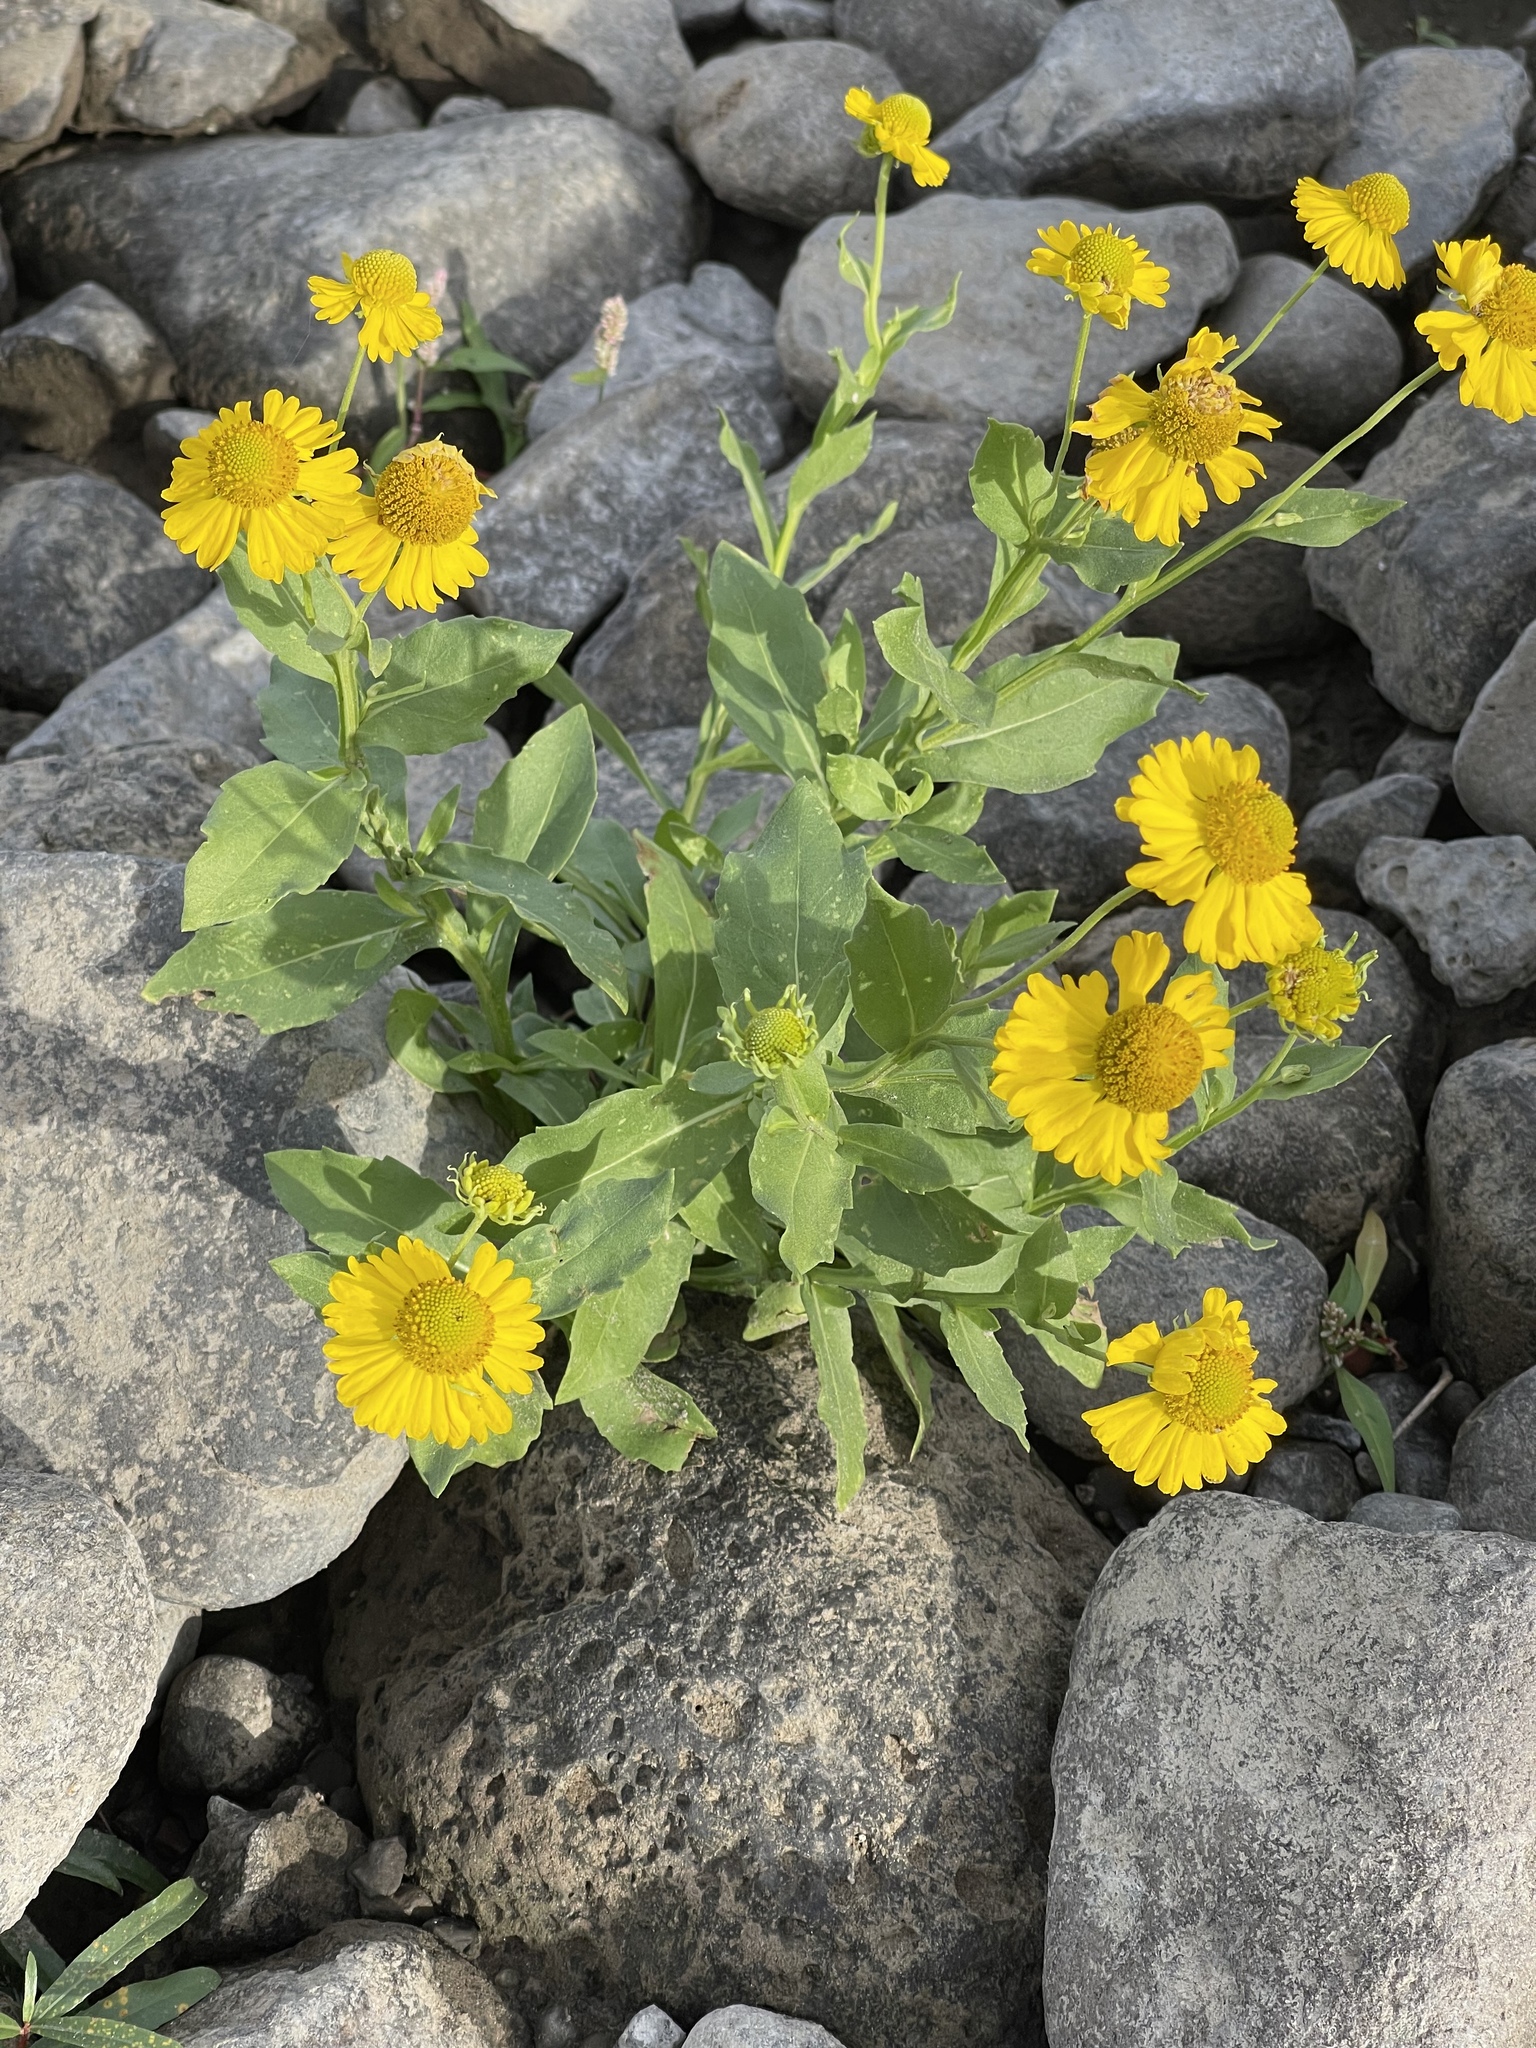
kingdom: Plantae
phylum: Tracheophyta
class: Magnoliopsida
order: Asterales
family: Asteraceae
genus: Helenium
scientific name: Helenium autumnale
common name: Sneezeweed
